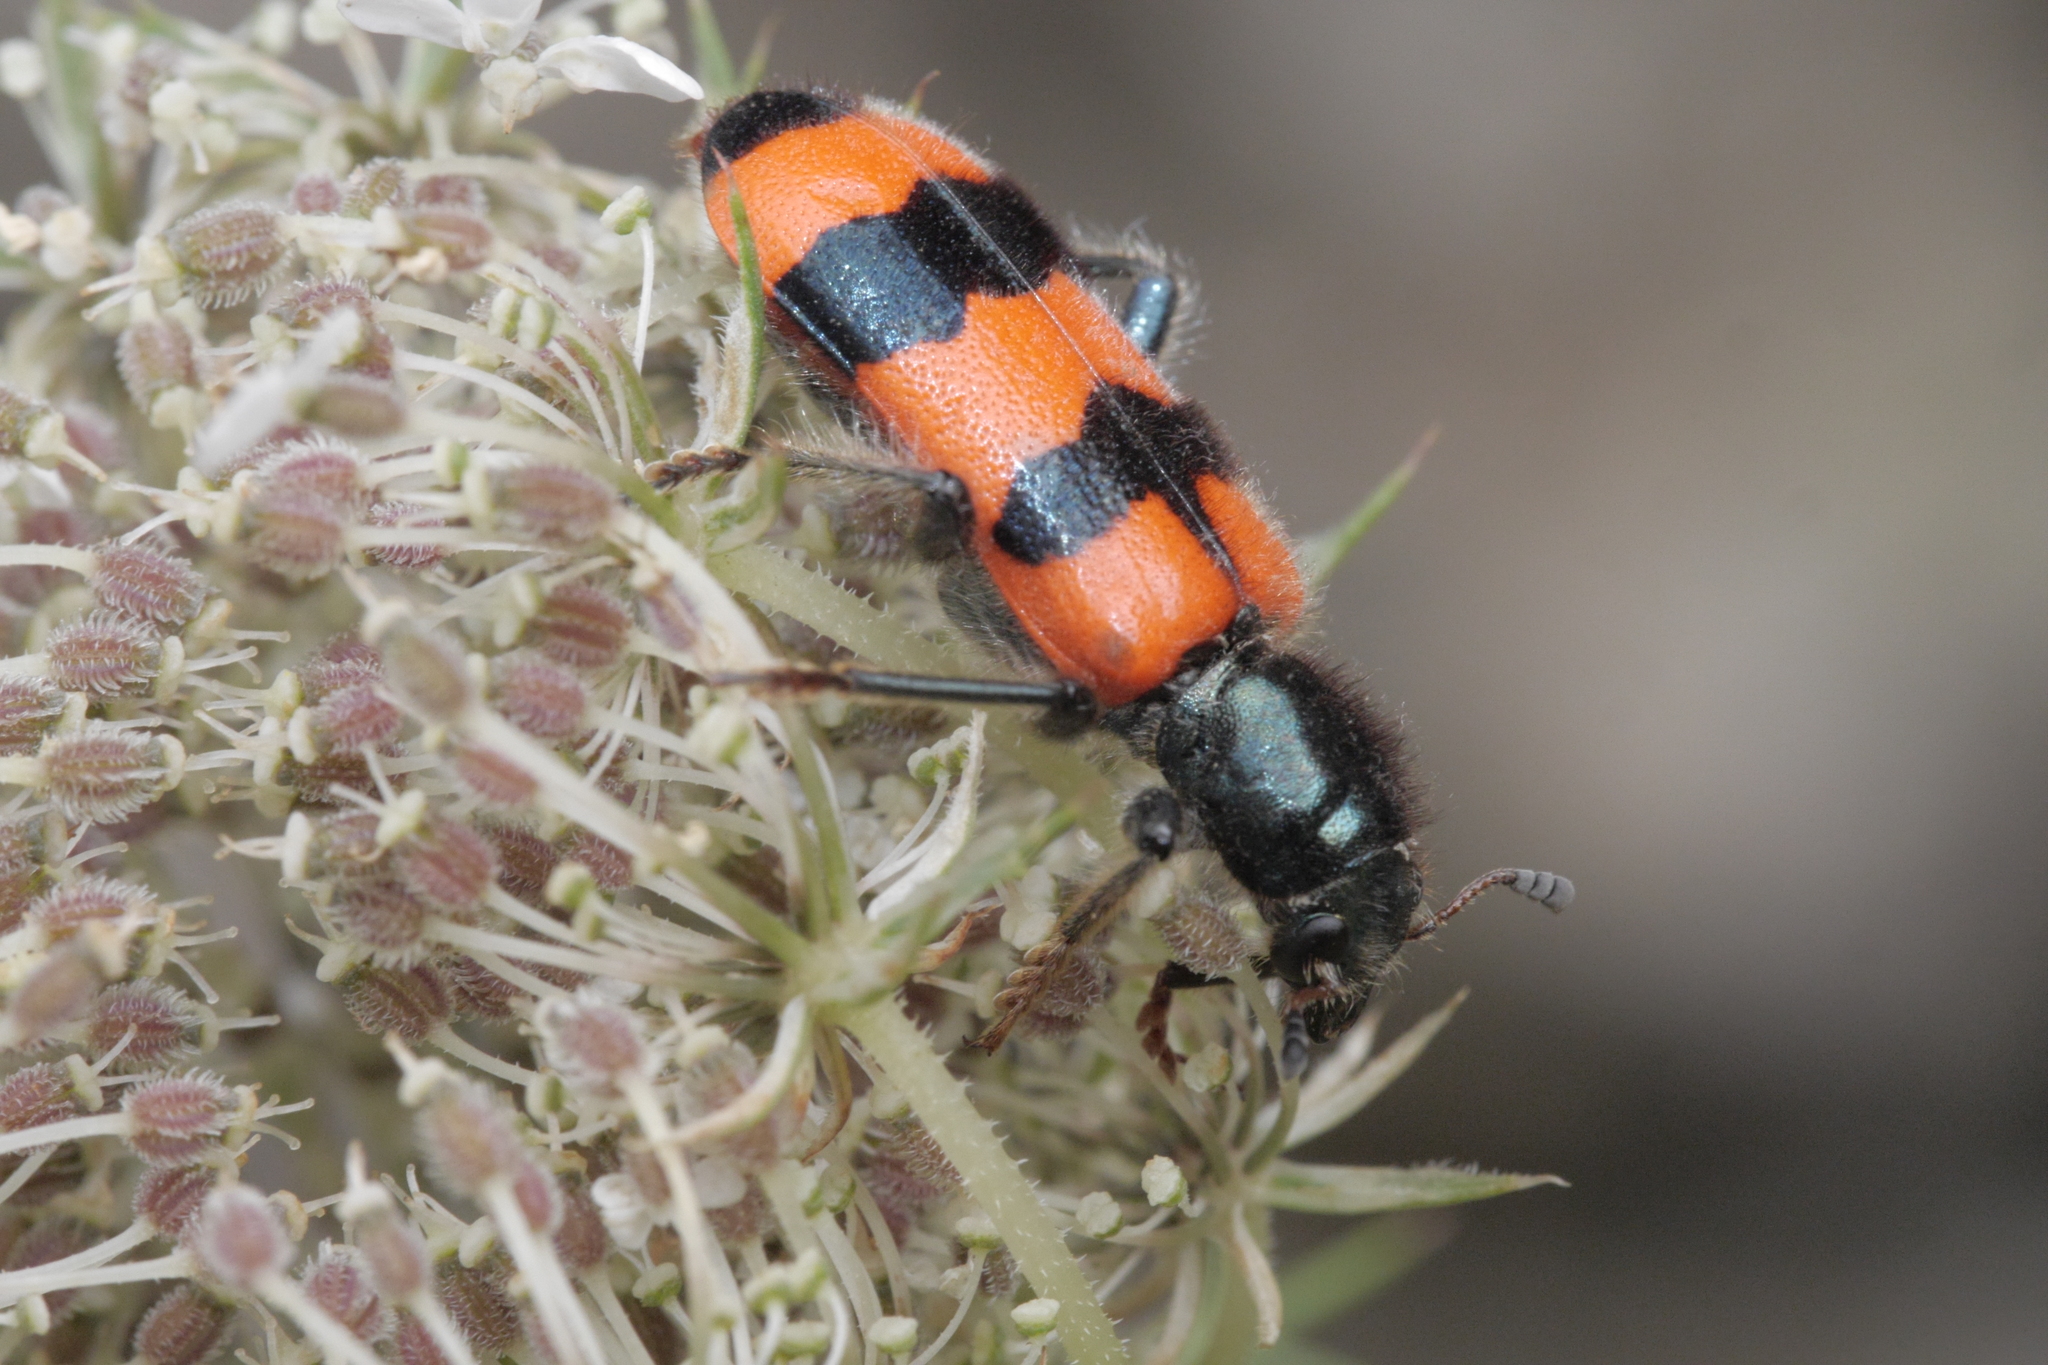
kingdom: Animalia
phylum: Arthropoda
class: Insecta
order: Coleoptera
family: Cleridae
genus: Trichodes
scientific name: Trichodes apiarius
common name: Bee-eating beetle
